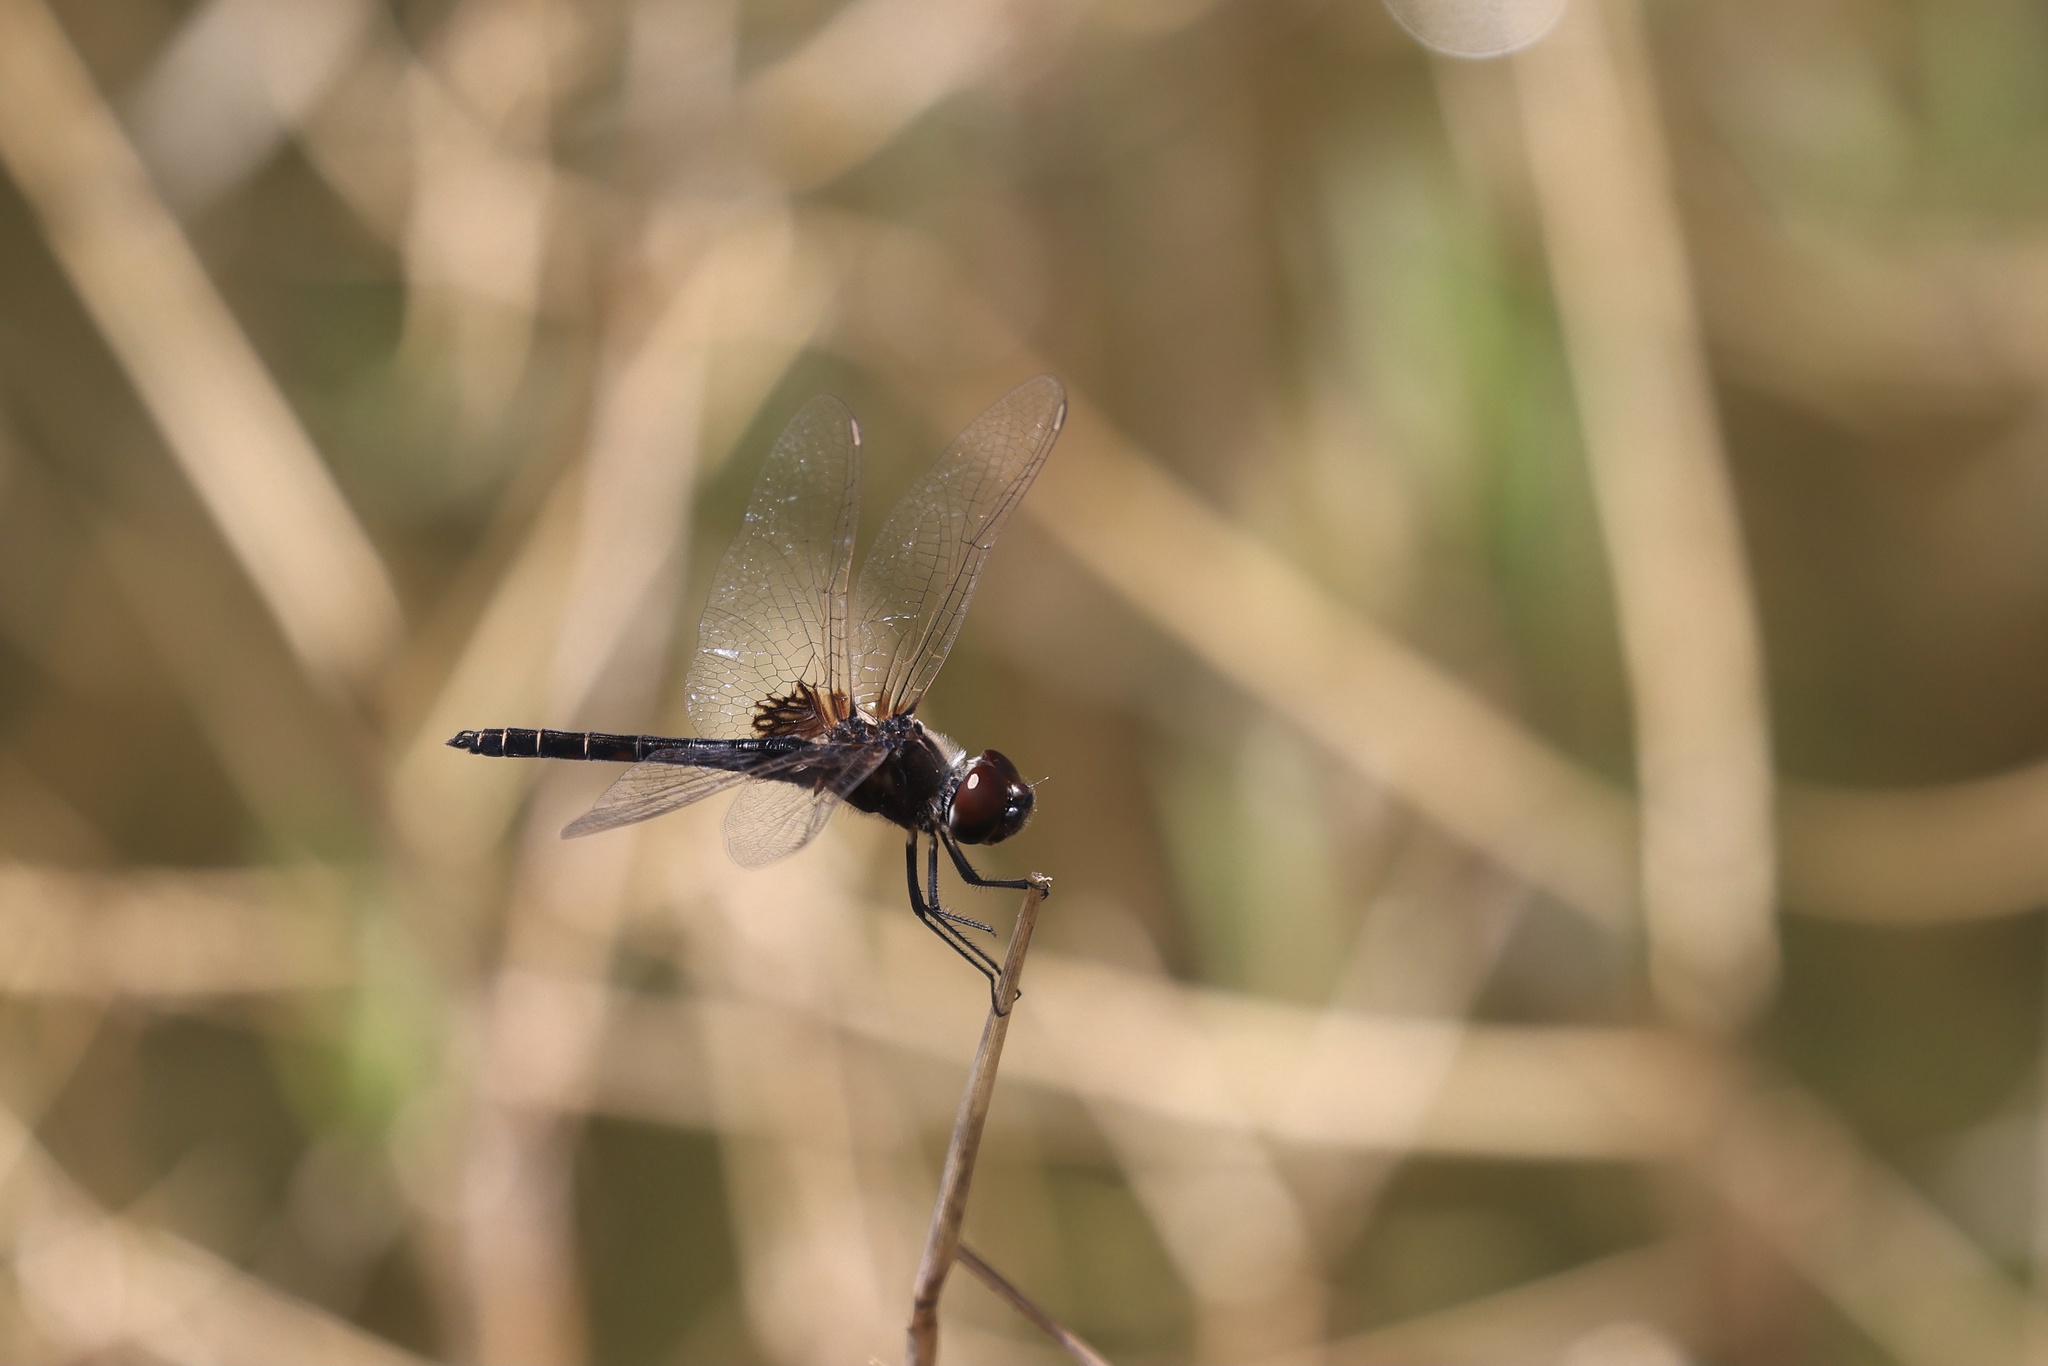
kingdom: Animalia
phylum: Arthropoda
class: Insecta
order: Odonata
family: Libellulidae
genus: Macrodiplax
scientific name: Macrodiplax balteata
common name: Marl pennant
